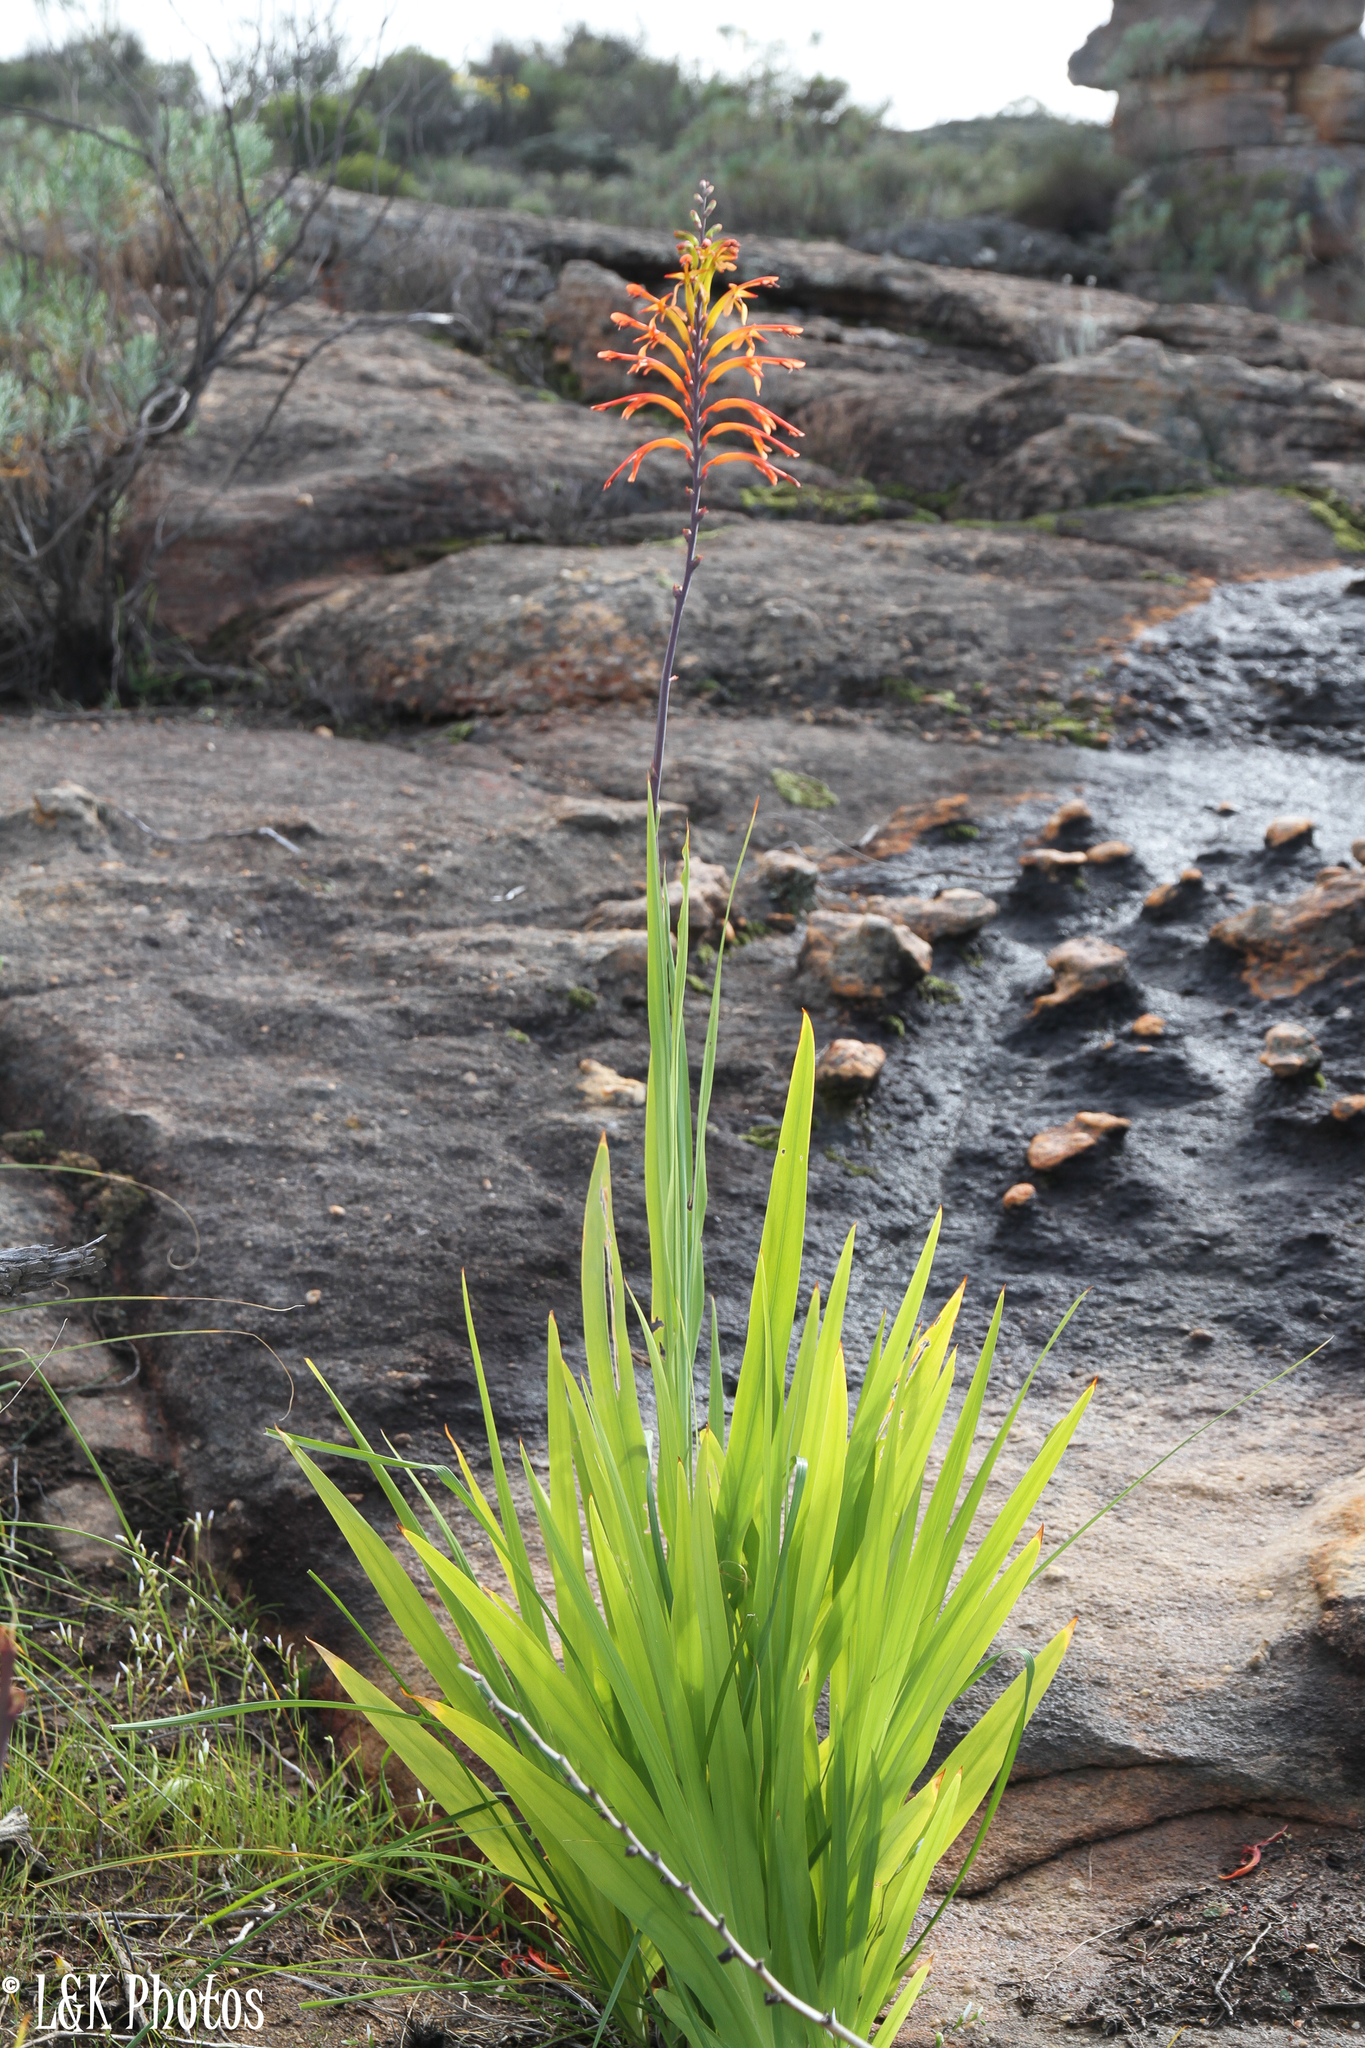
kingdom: Plantae
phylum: Tracheophyta
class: Liliopsida
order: Asparagales
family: Iridaceae
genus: Chasmanthe
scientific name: Chasmanthe floribunda
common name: African cornflag
